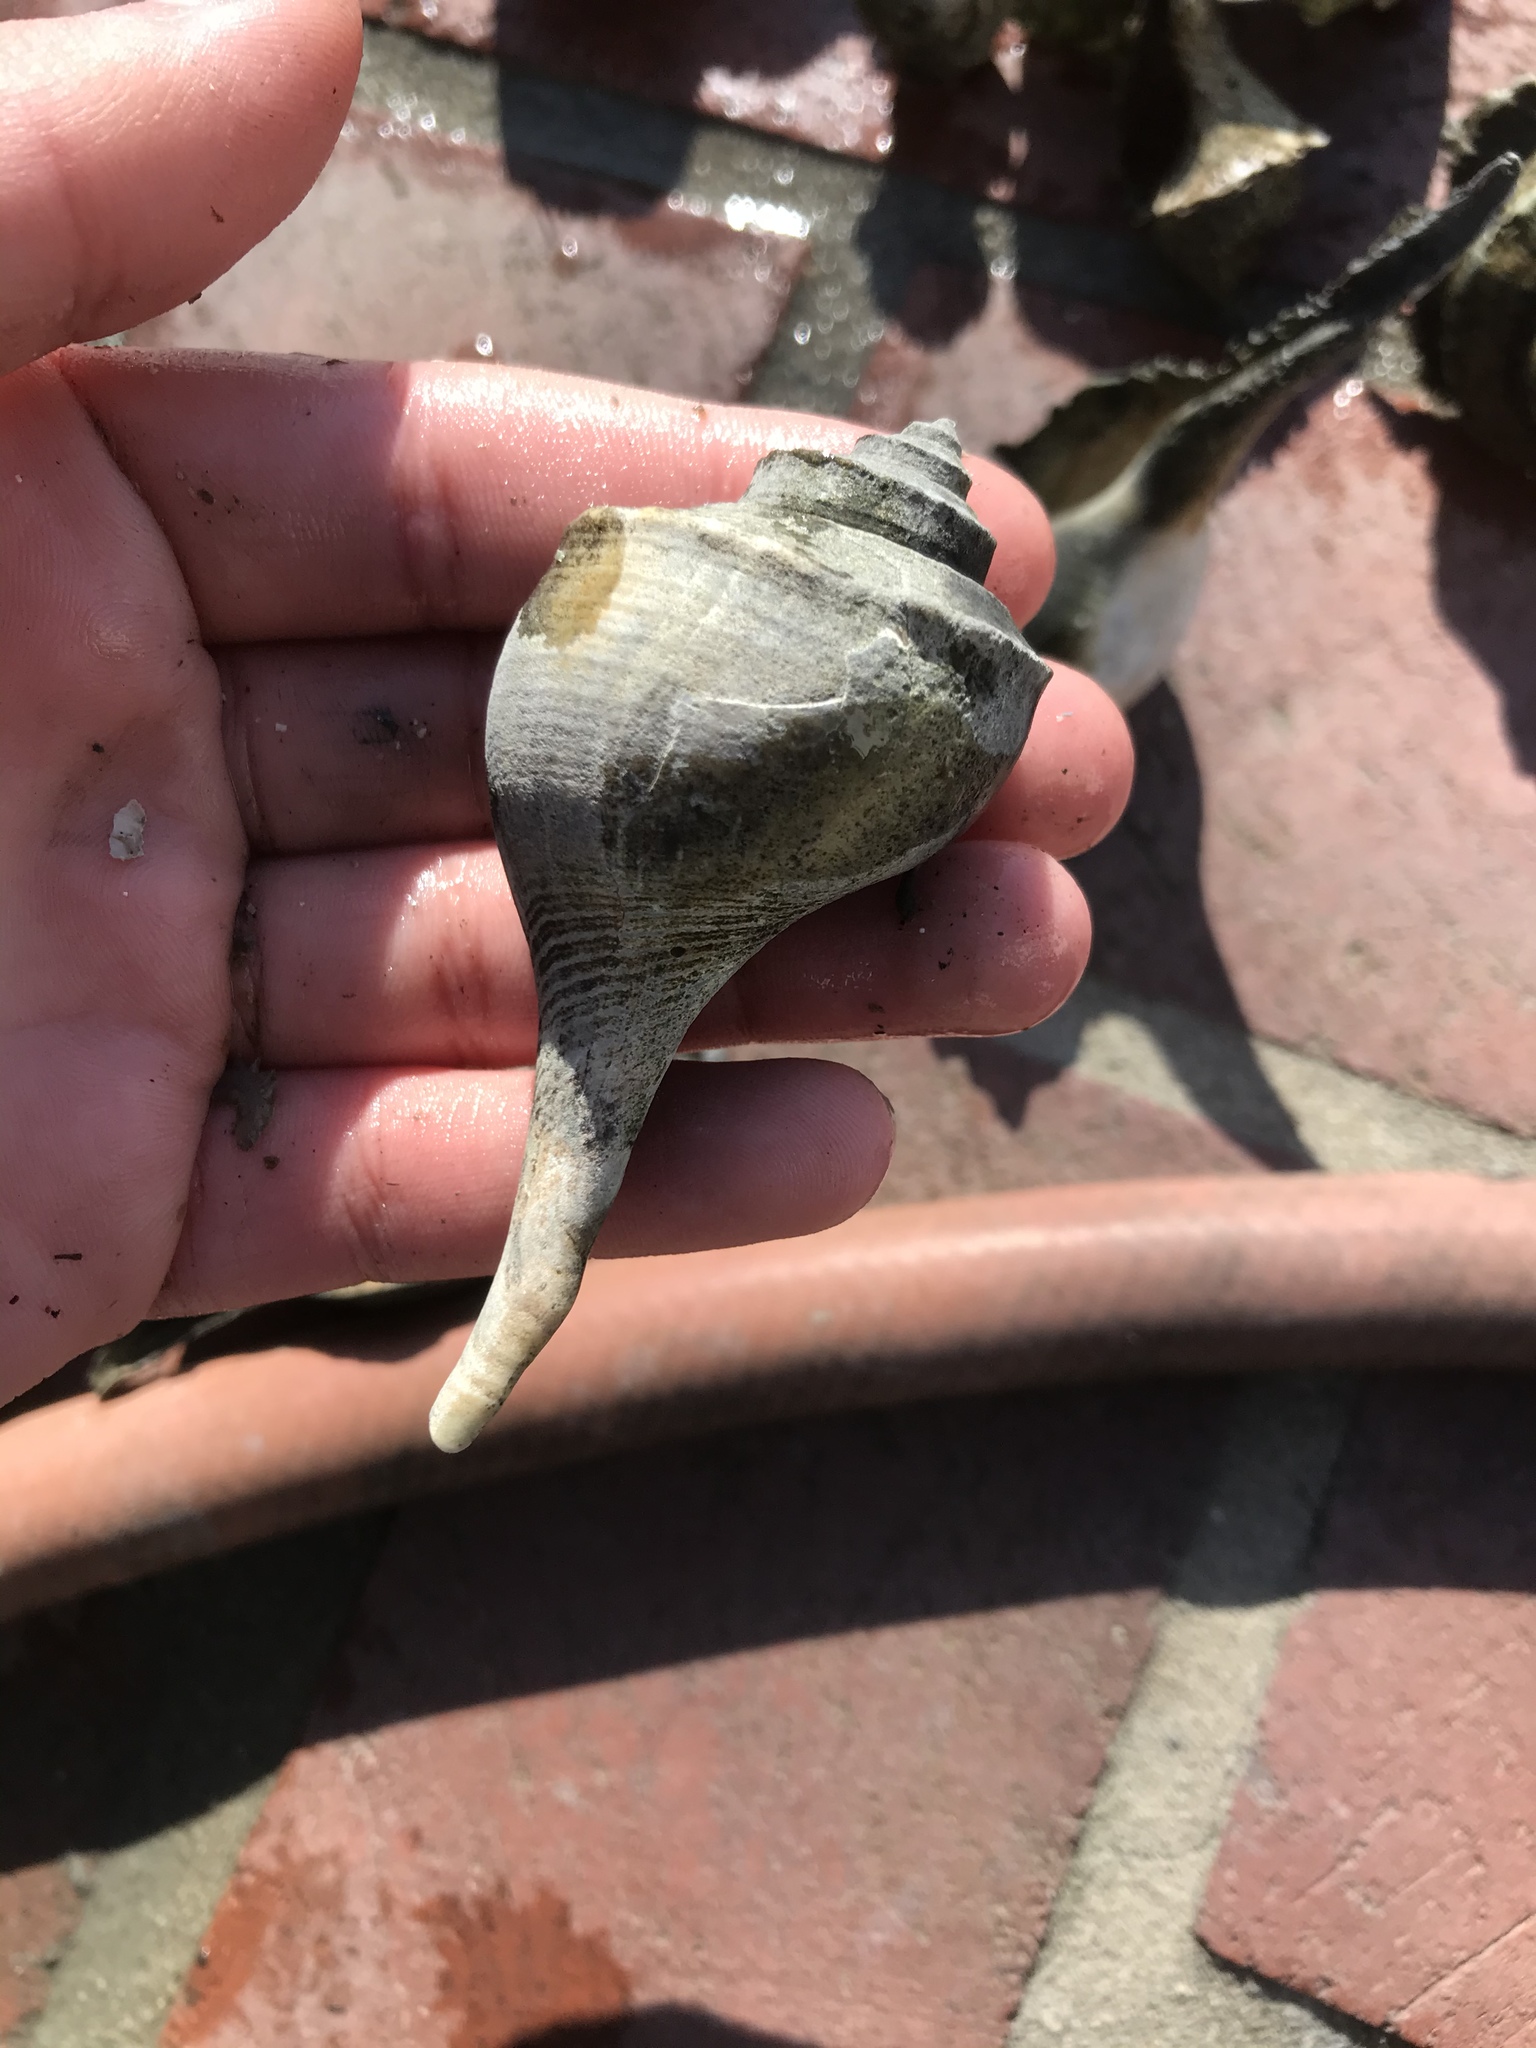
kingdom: Animalia
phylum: Mollusca
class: Gastropoda
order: Neogastropoda
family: Busyconidae
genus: Busycotypus
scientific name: Busycotypus canaliculatus
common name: Channeled whelk
